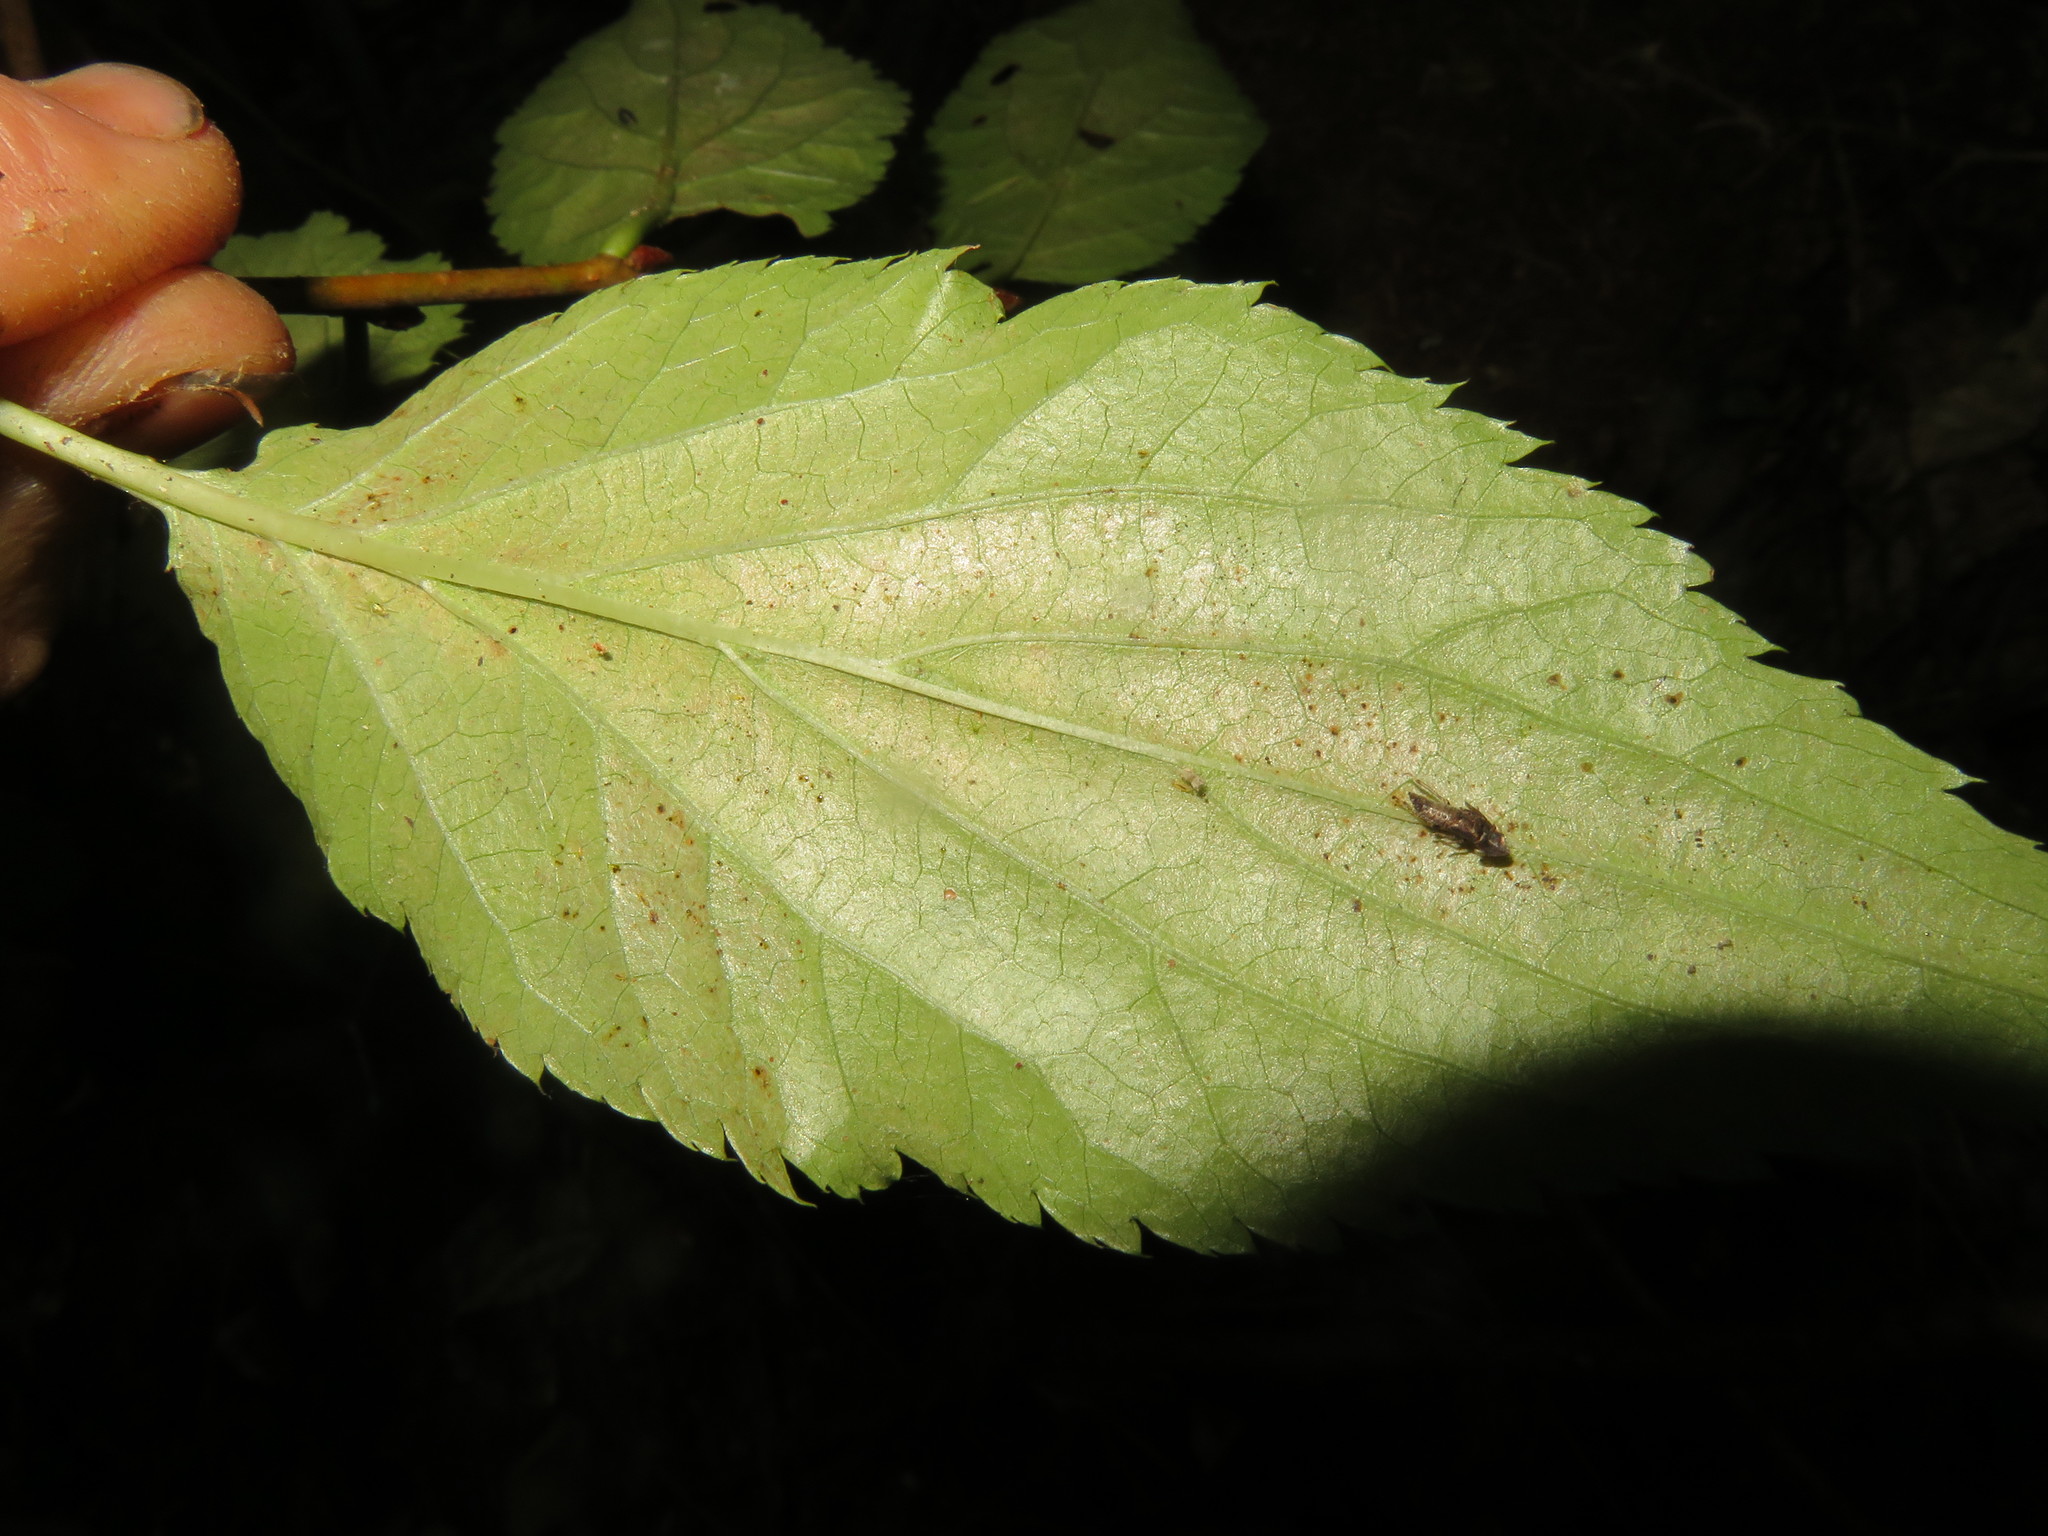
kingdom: Plantae
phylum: Tracheophyta
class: Magnoliopsida
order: Rosales
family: Rosaceae
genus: Prunus
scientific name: Prunus serrulata
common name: Japanese cherry
